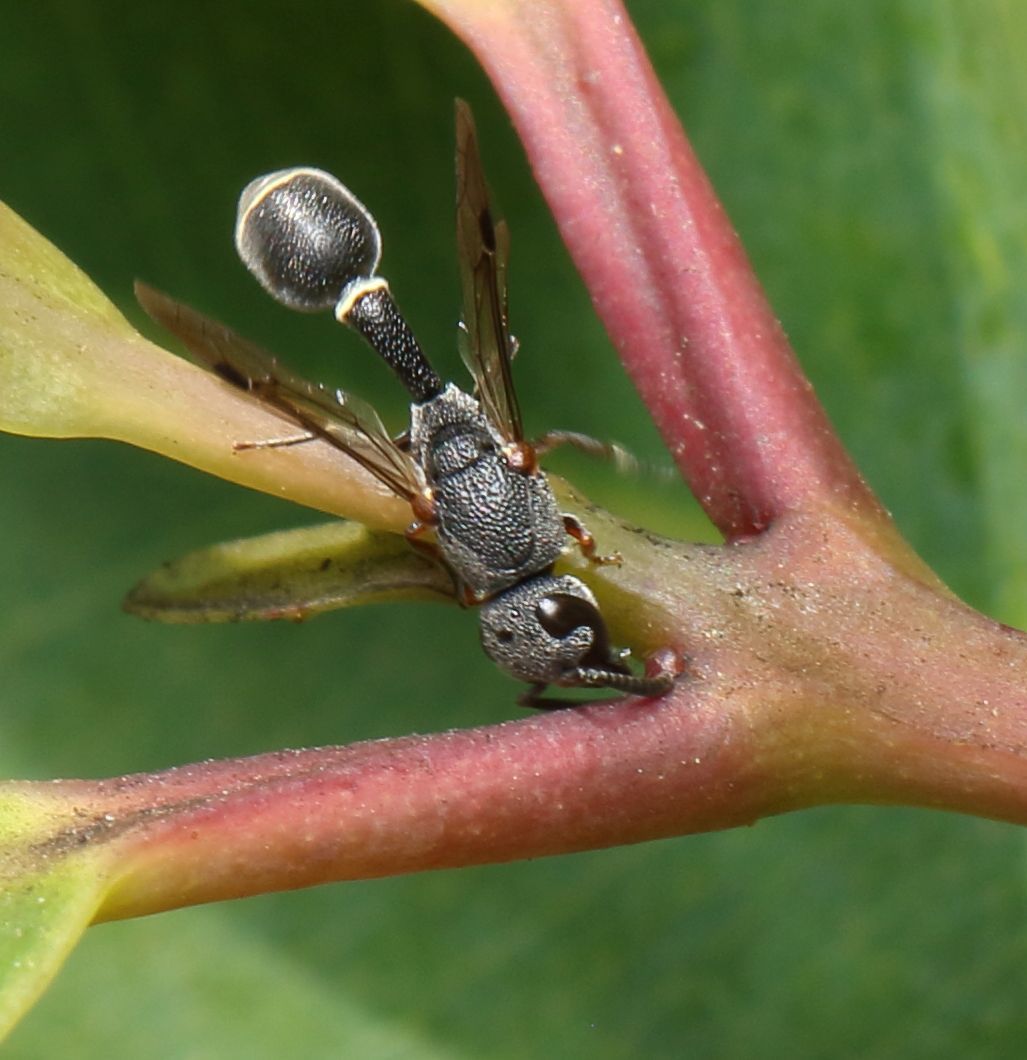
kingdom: Animalia
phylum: Arthropoda
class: Insecta
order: Hymenoptera
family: Eumenidae
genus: Cyrtolabulus
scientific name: Cyrtolabulus
